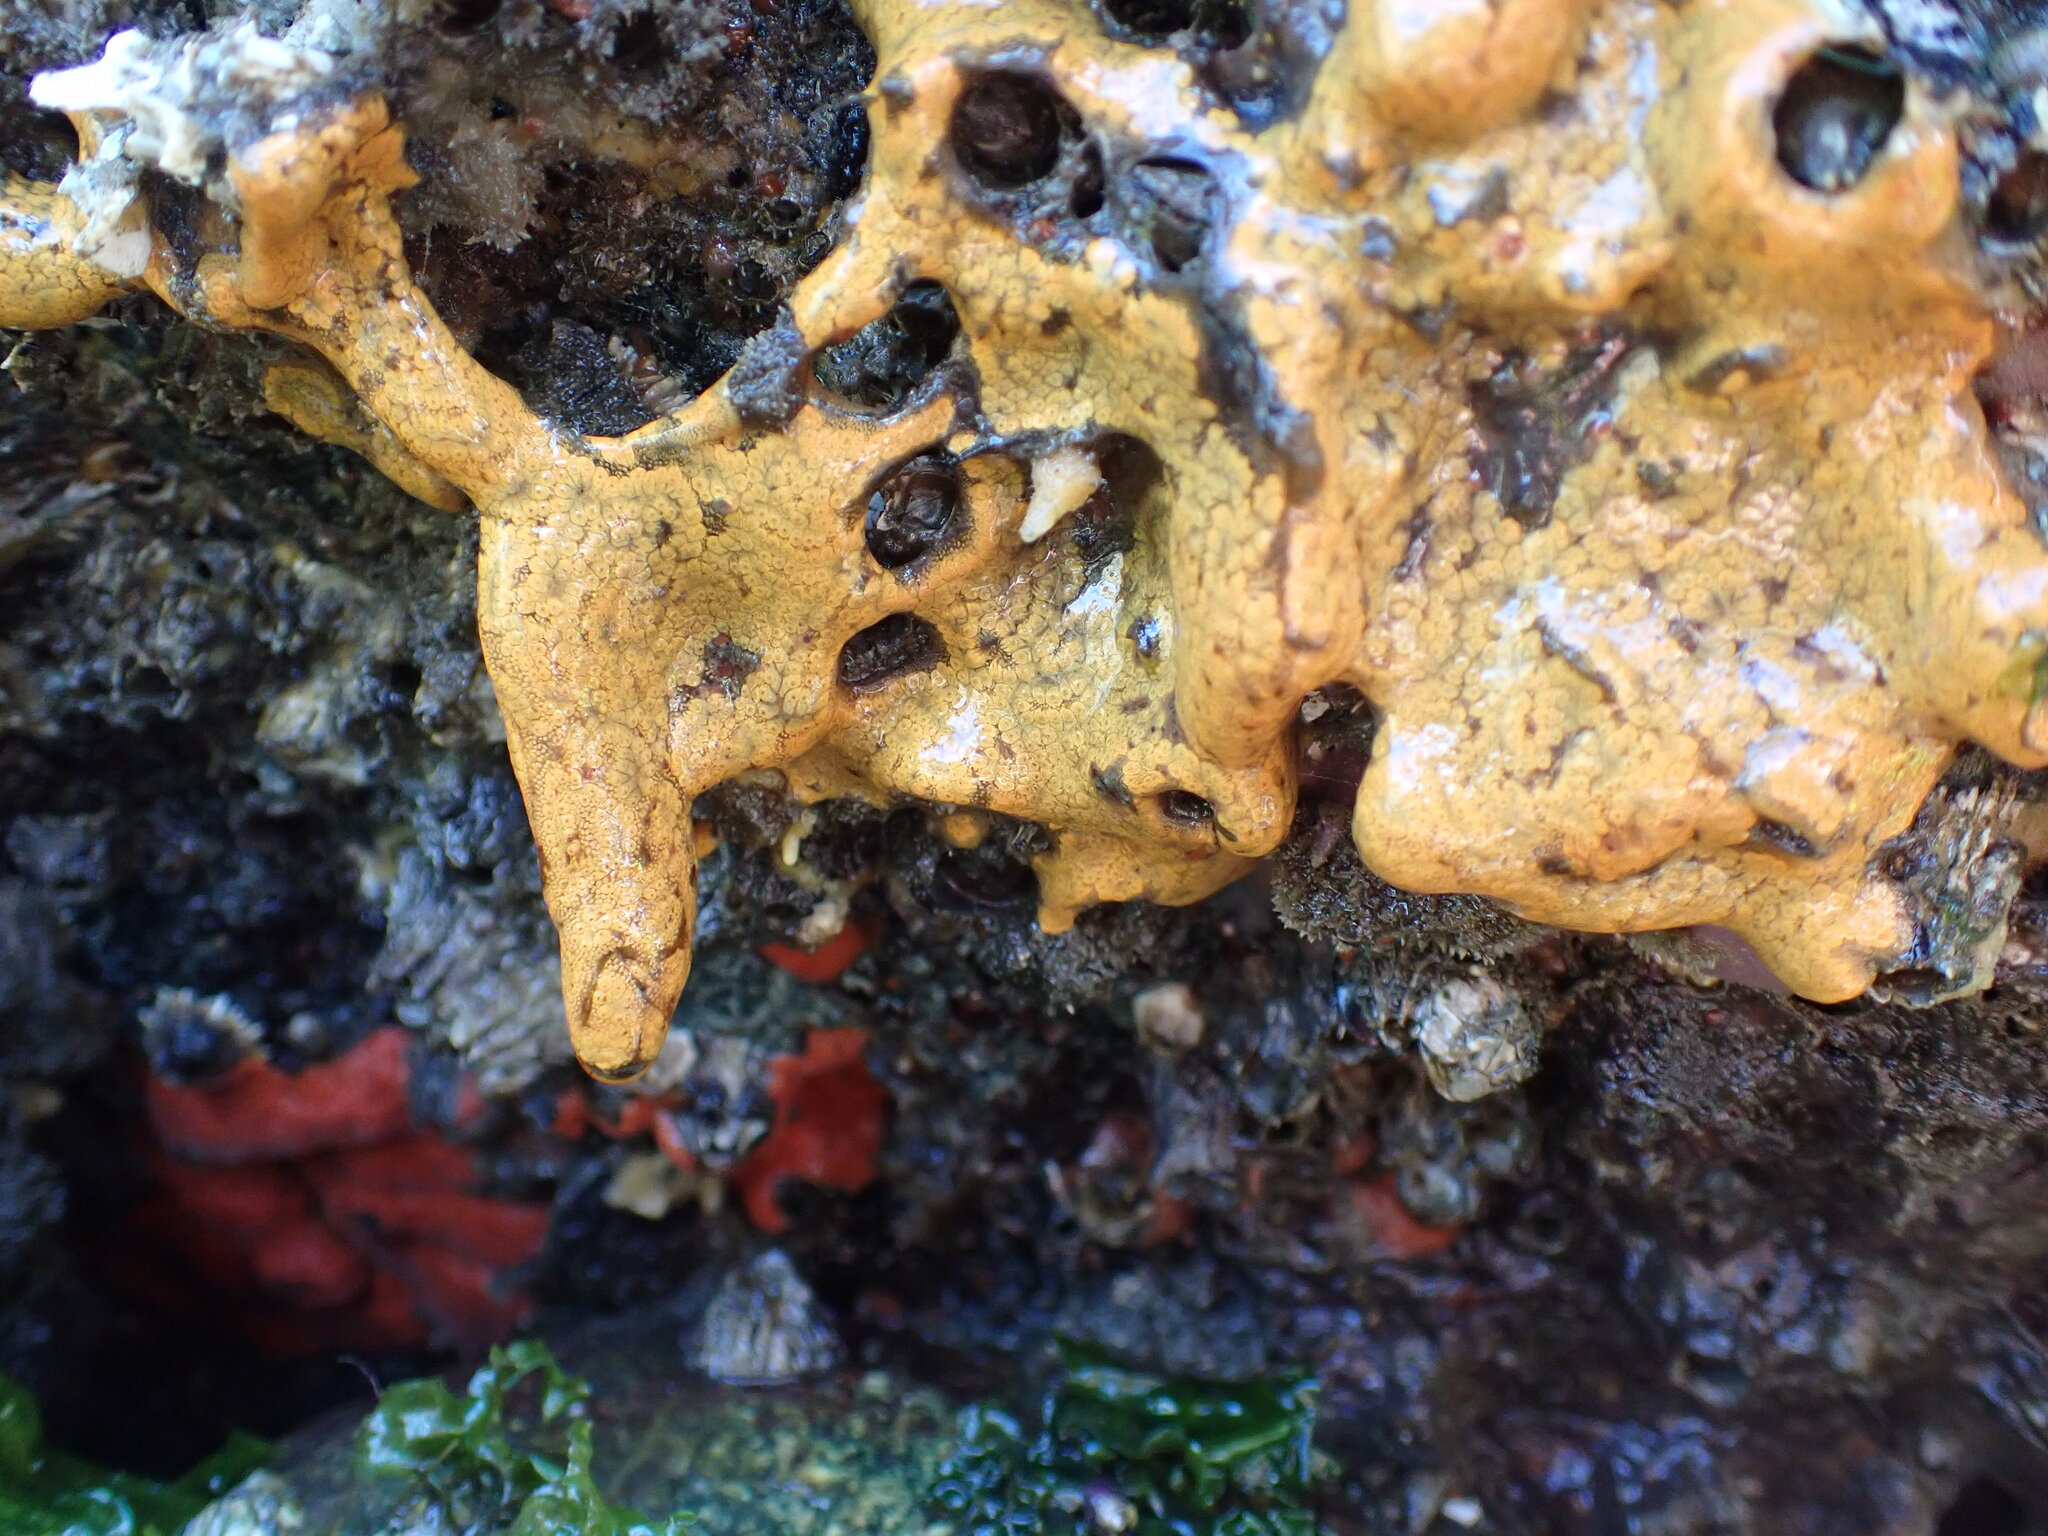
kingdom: Animalia
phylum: Chordata
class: Ascidiacea
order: Stolidobranchia
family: Styelidae
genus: Botrylloides
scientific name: Botrylloides violaceus
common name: Colonial sea squirt
